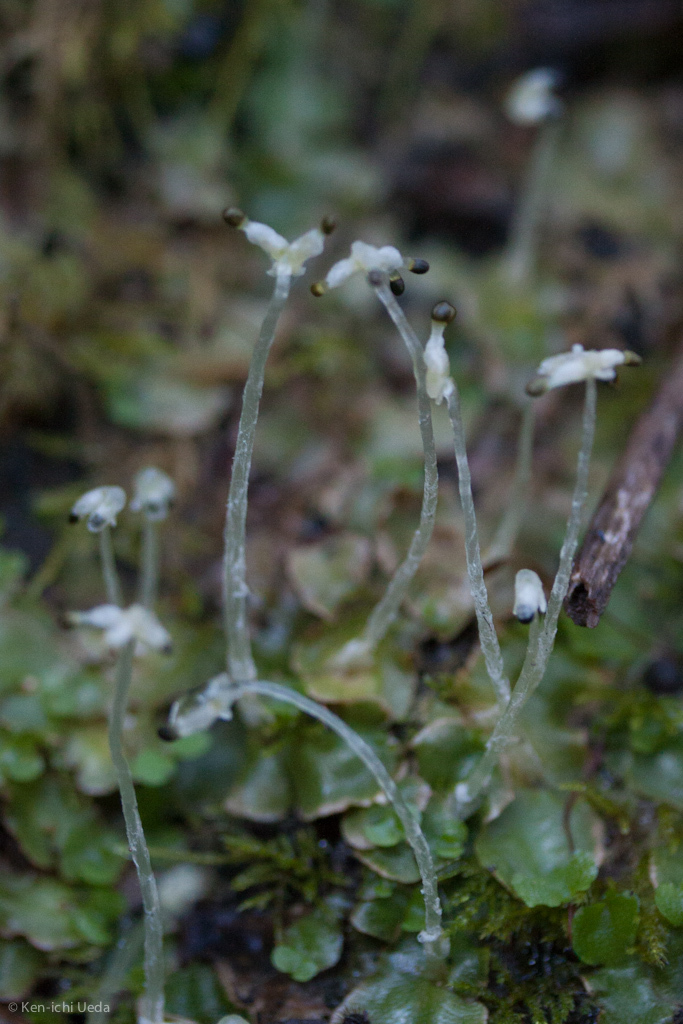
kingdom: Plantae
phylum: Marchantiophyta
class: Marchantiopsida
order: Lunulariales
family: Lunulariaceae
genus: Lunularia
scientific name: Lunularia cruciata
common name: Crescent-cup liverwort
